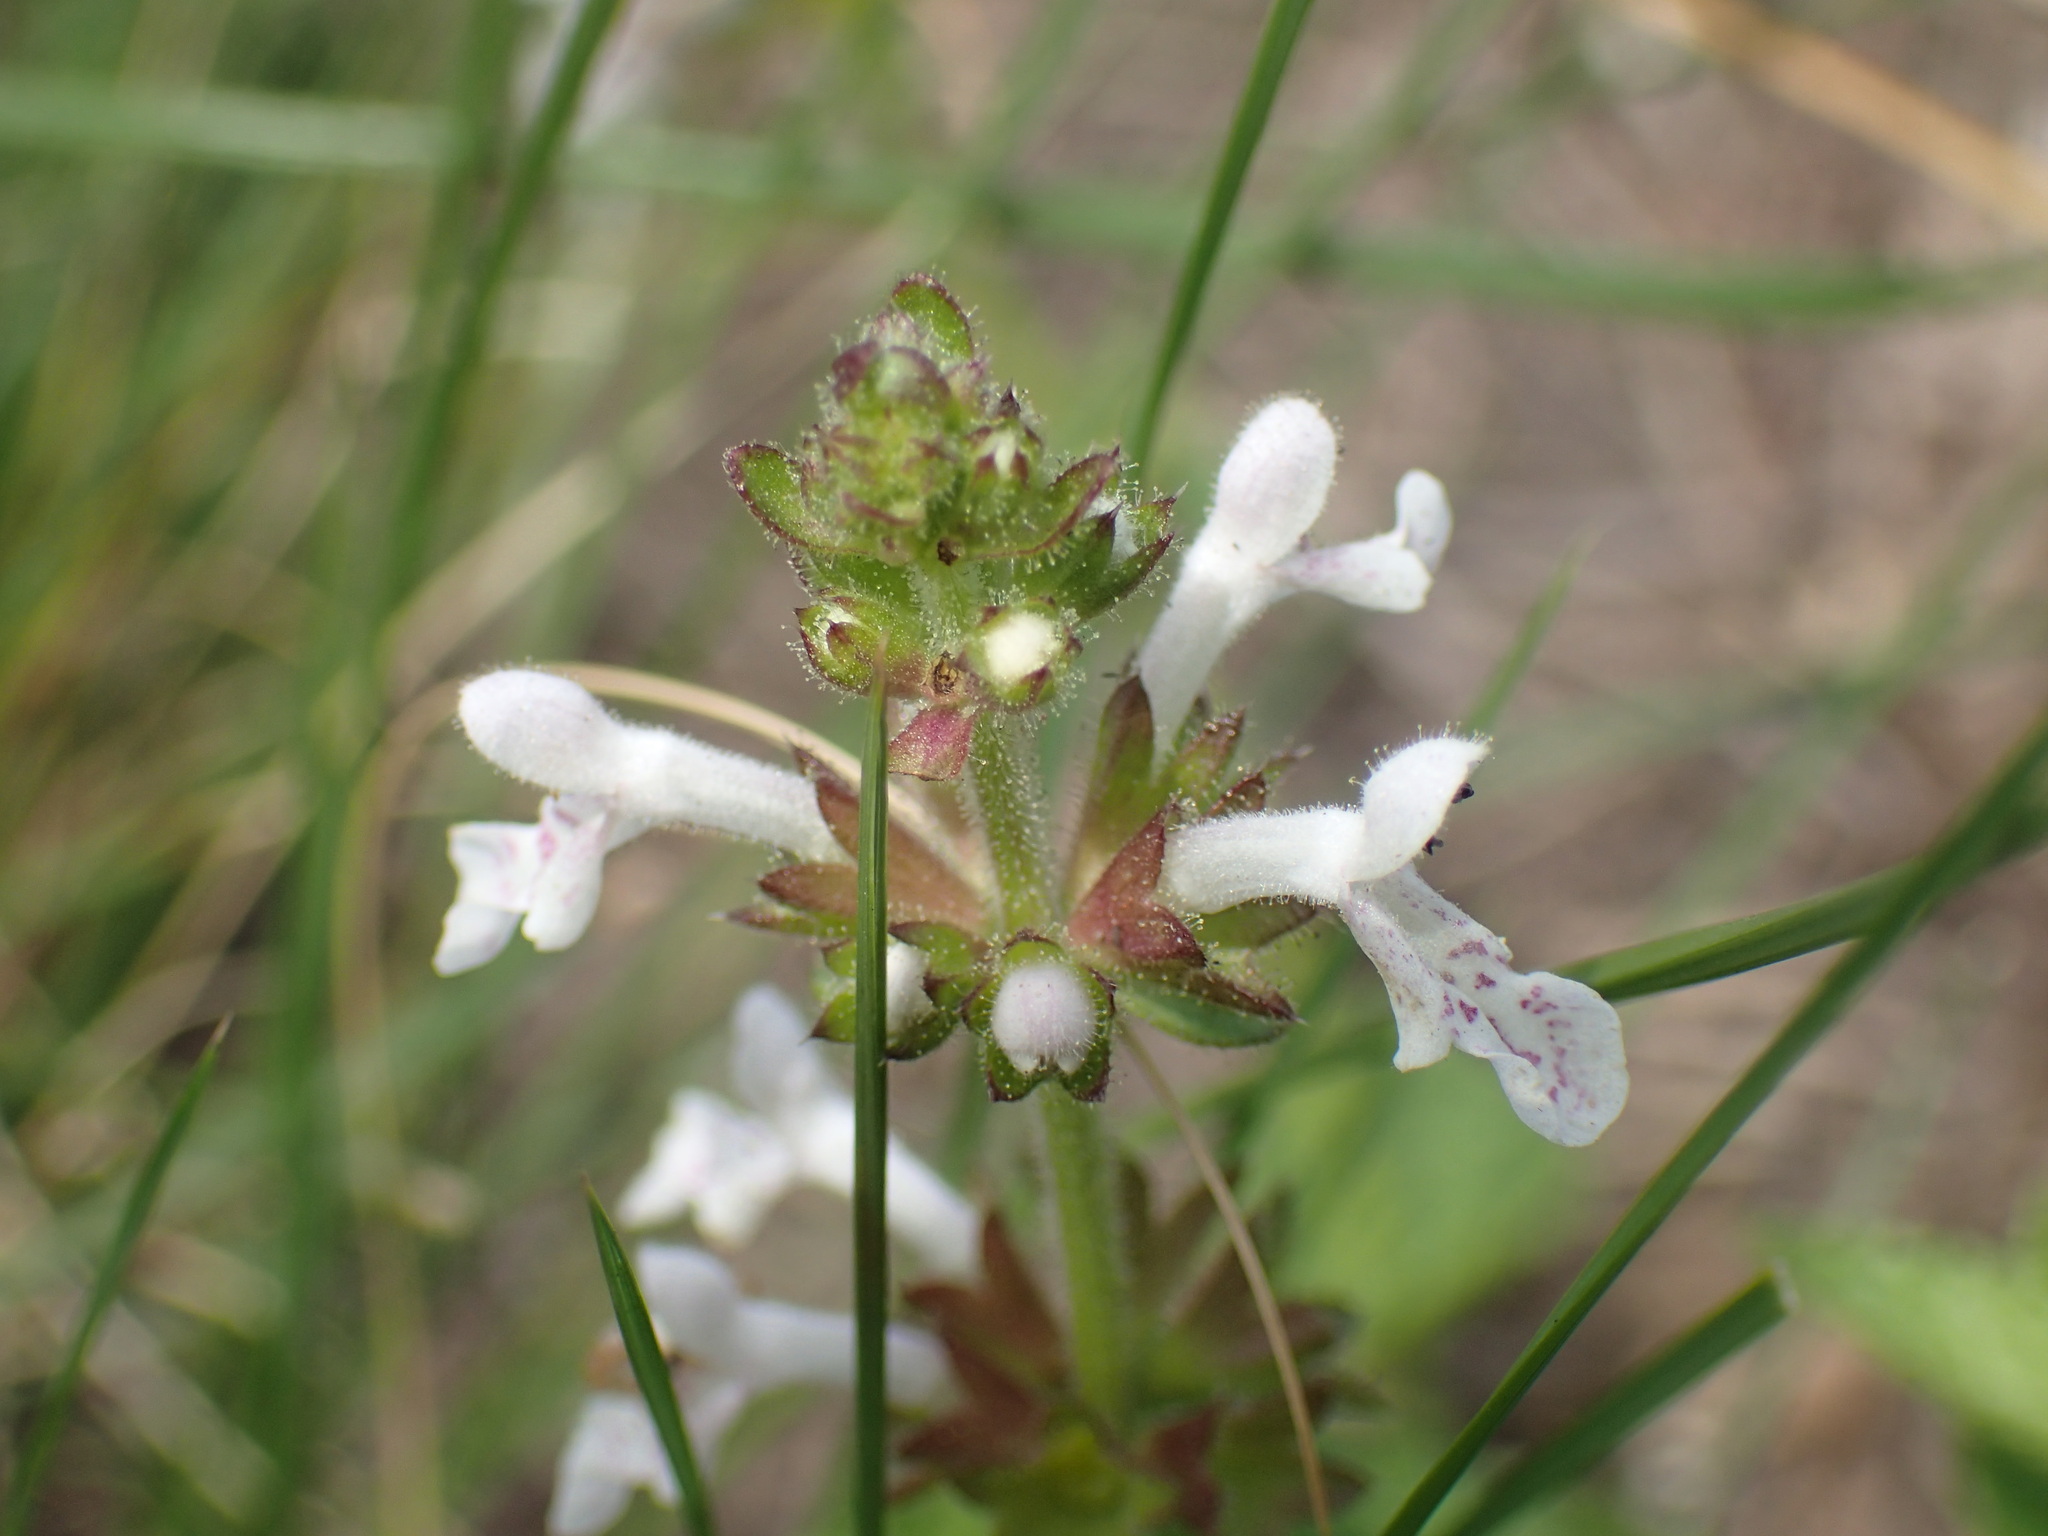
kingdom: Plantae
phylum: Tracheophyta
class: Magnoliopsida
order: Lamiales
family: Lamiaceae
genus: Stachys
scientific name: Stachys aethiopica
